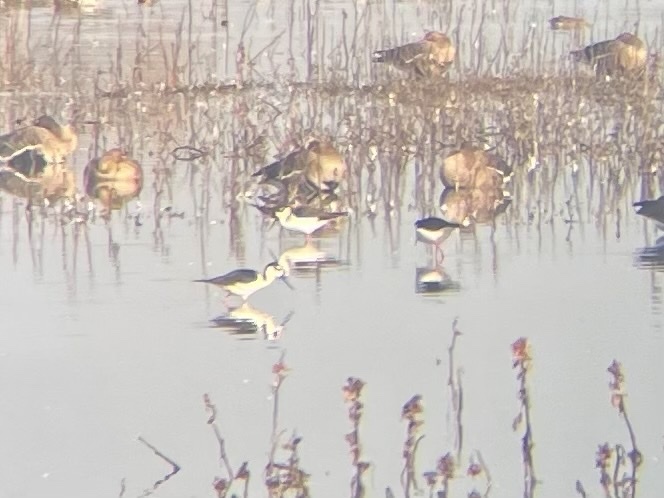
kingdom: Animalia
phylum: Chordata
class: Aves
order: Charadriiformes
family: Recurvirostridae
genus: Himantopus
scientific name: Himantopus mexicanus
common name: Black-necked stilt
